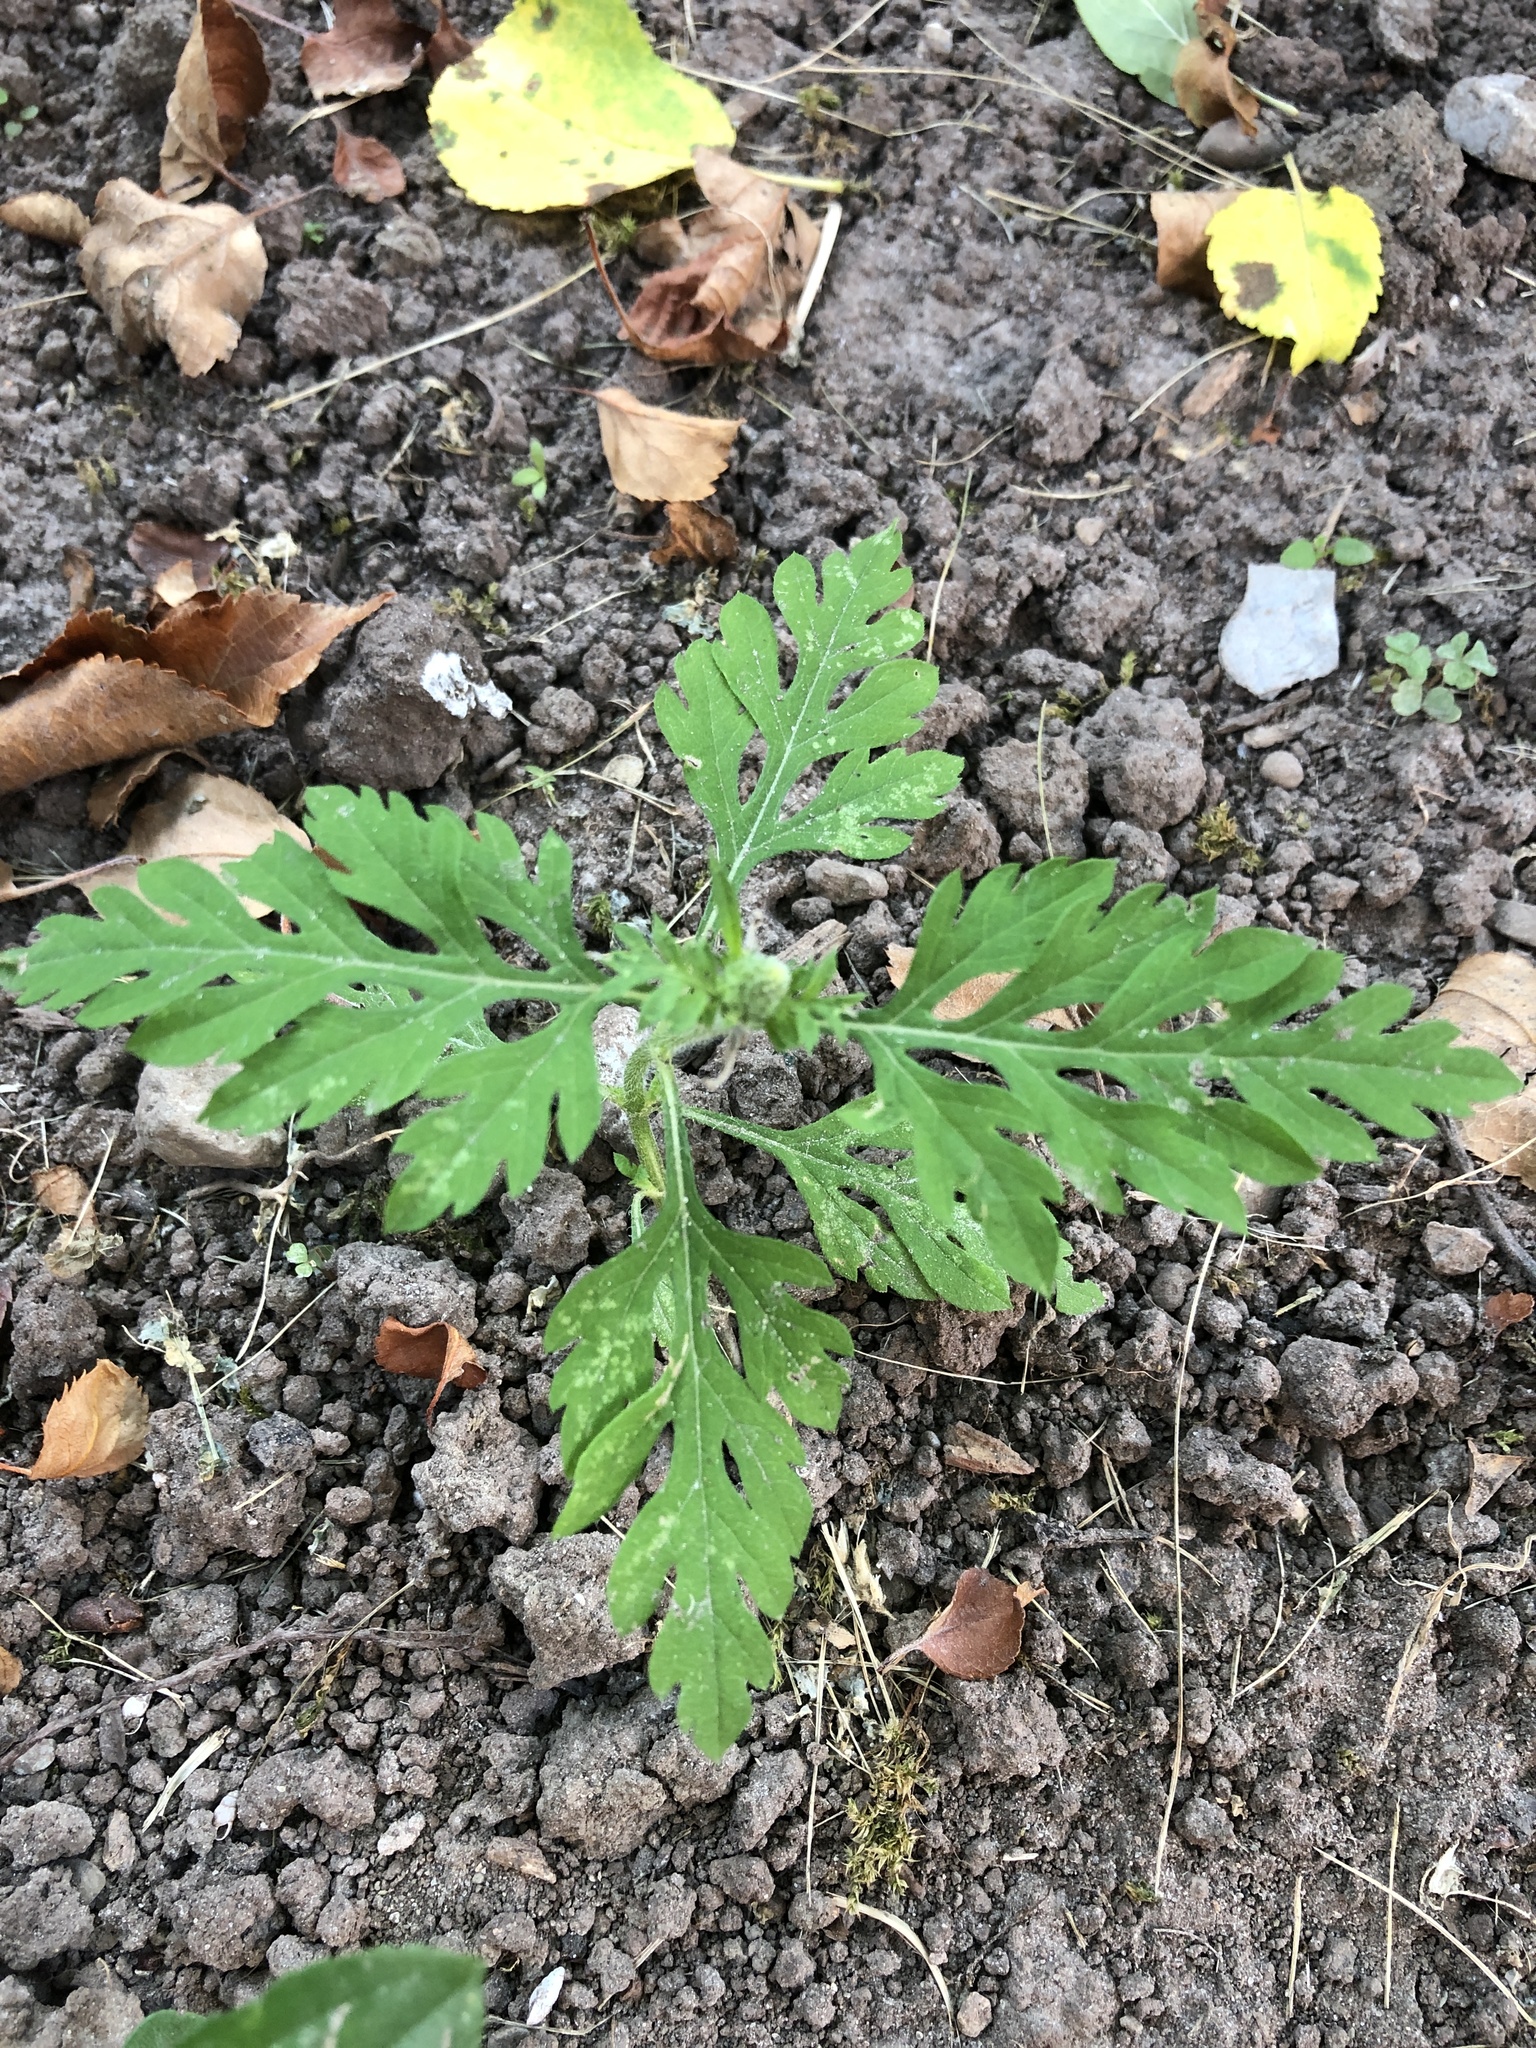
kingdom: Plantae
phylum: Tracheophyta
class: Magnoliopsida
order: Asterales
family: Asteraceae
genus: Ambrosia
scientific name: Ambrosia artemisiifolia
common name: Annual ragweed
